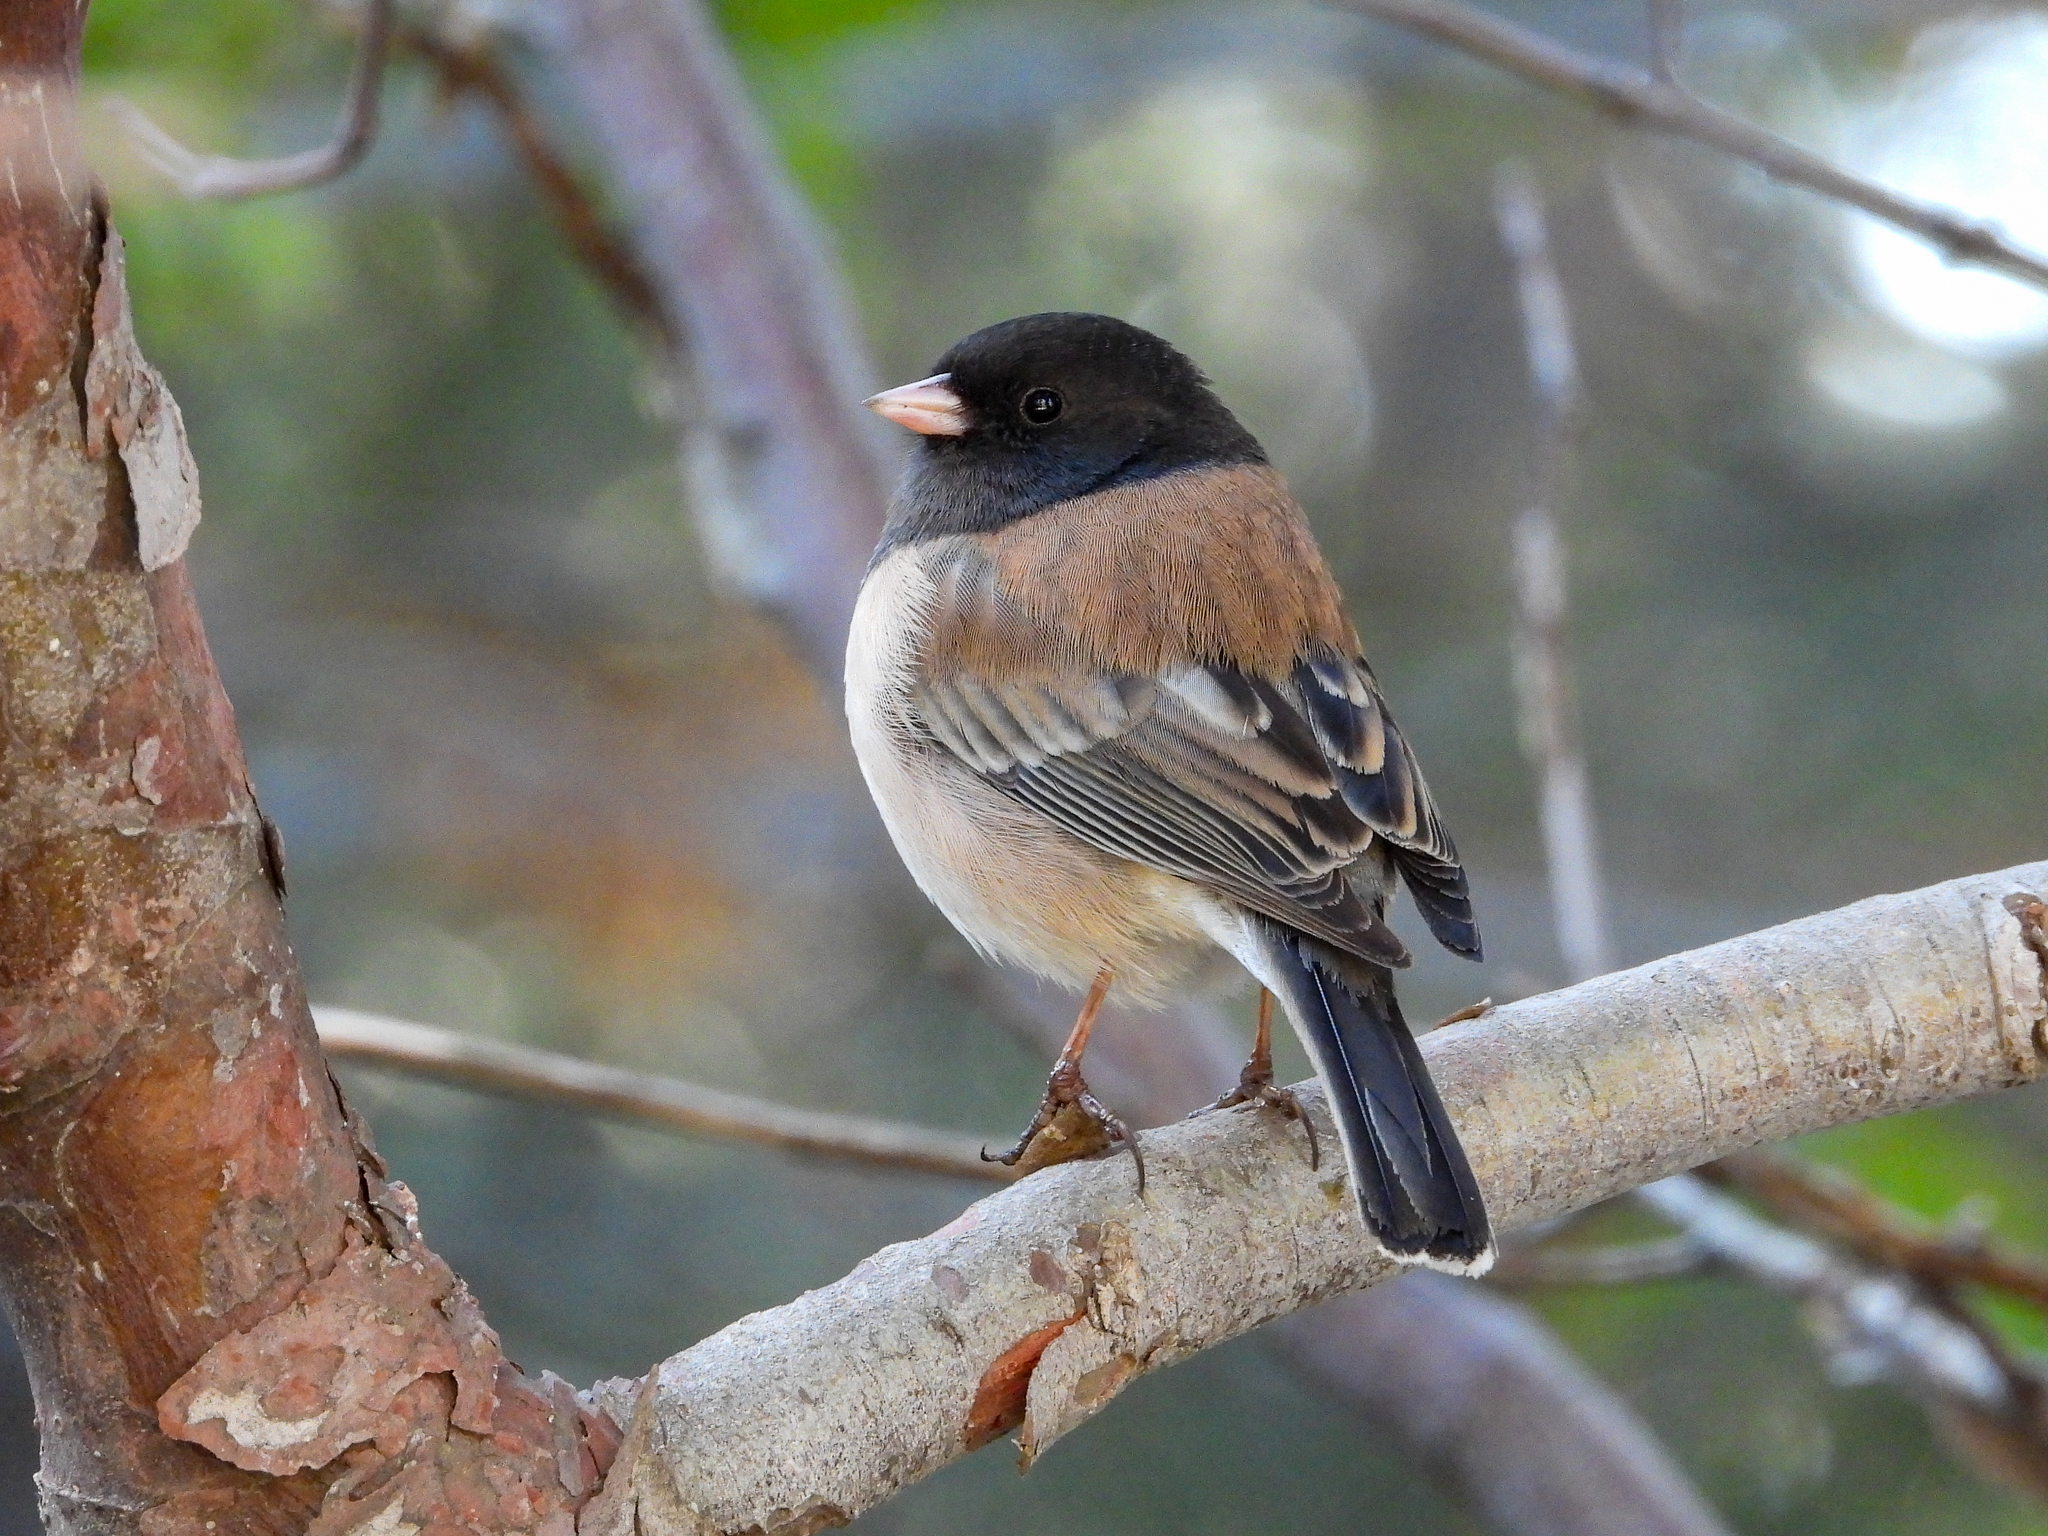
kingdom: Animalia
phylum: Chordata
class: Aves
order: Passeriformes
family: Passerellidae
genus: Junco
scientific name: Junco hyemalis
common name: Dark-eyed junco
